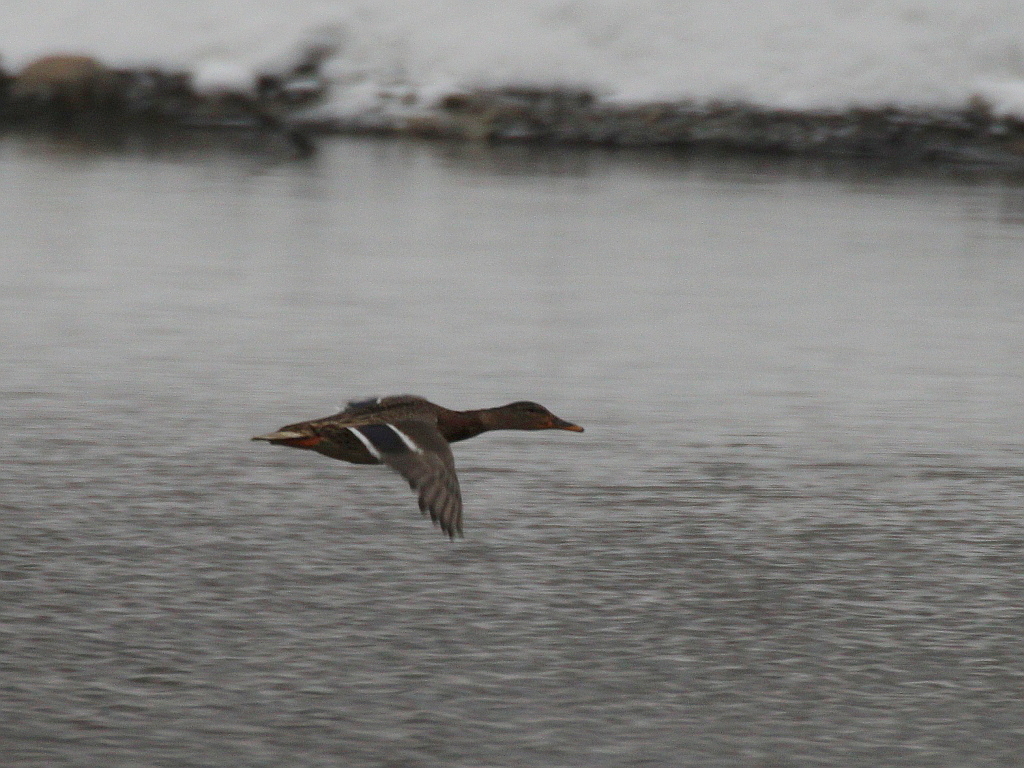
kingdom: Animalia
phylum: Chordata
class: Aves
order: Anseriformes
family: Anatidae
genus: Anas
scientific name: Anas platyrhynchos
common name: Mallard
